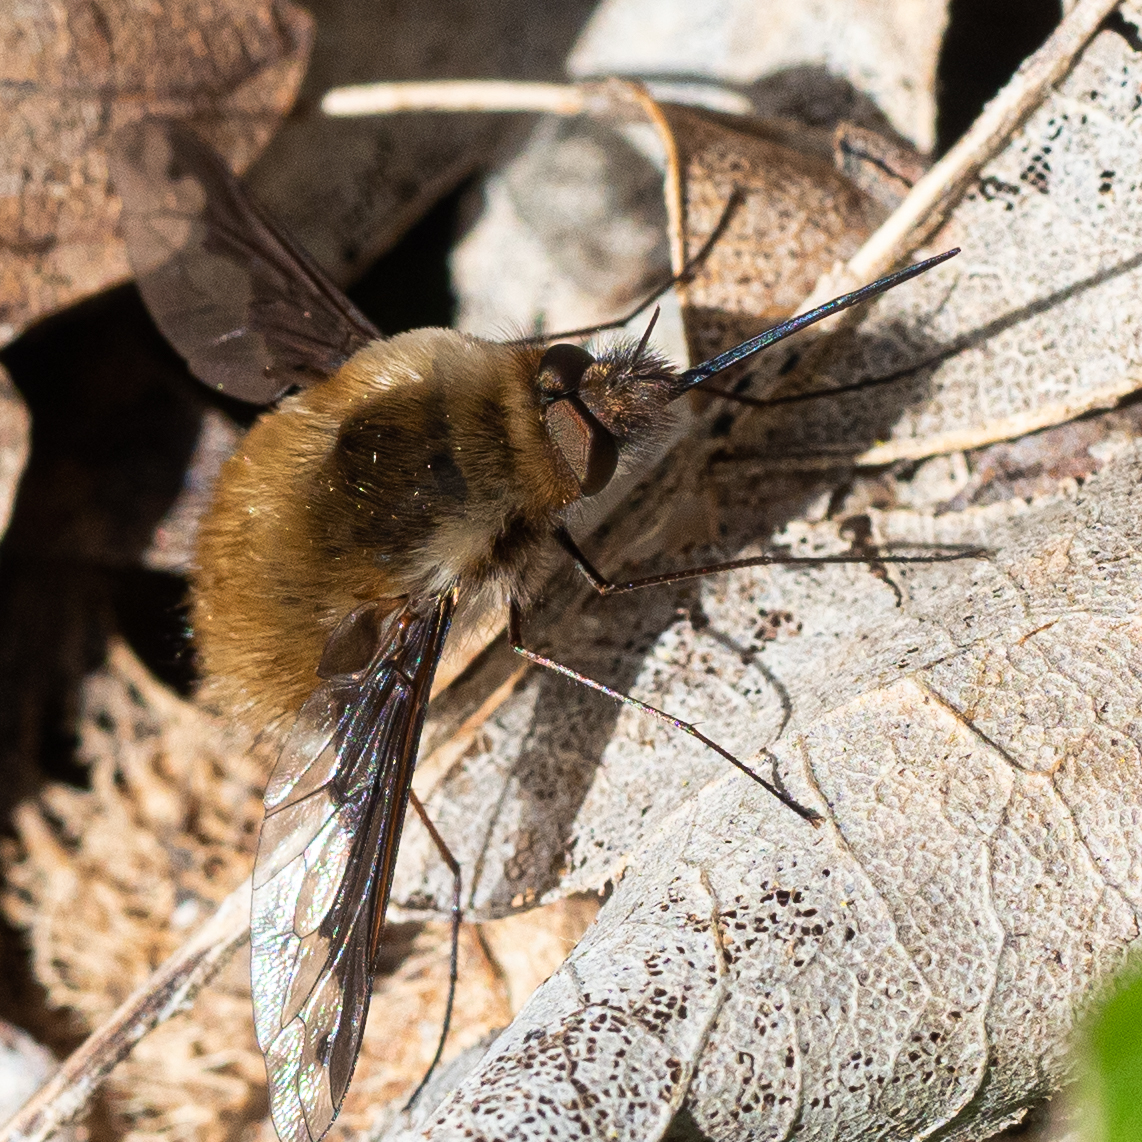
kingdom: Animalia
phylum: Arthropoda
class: Insecta
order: Diptera
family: Bombyliidae
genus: Bombylius
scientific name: Bombylius major
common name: Bee fly
